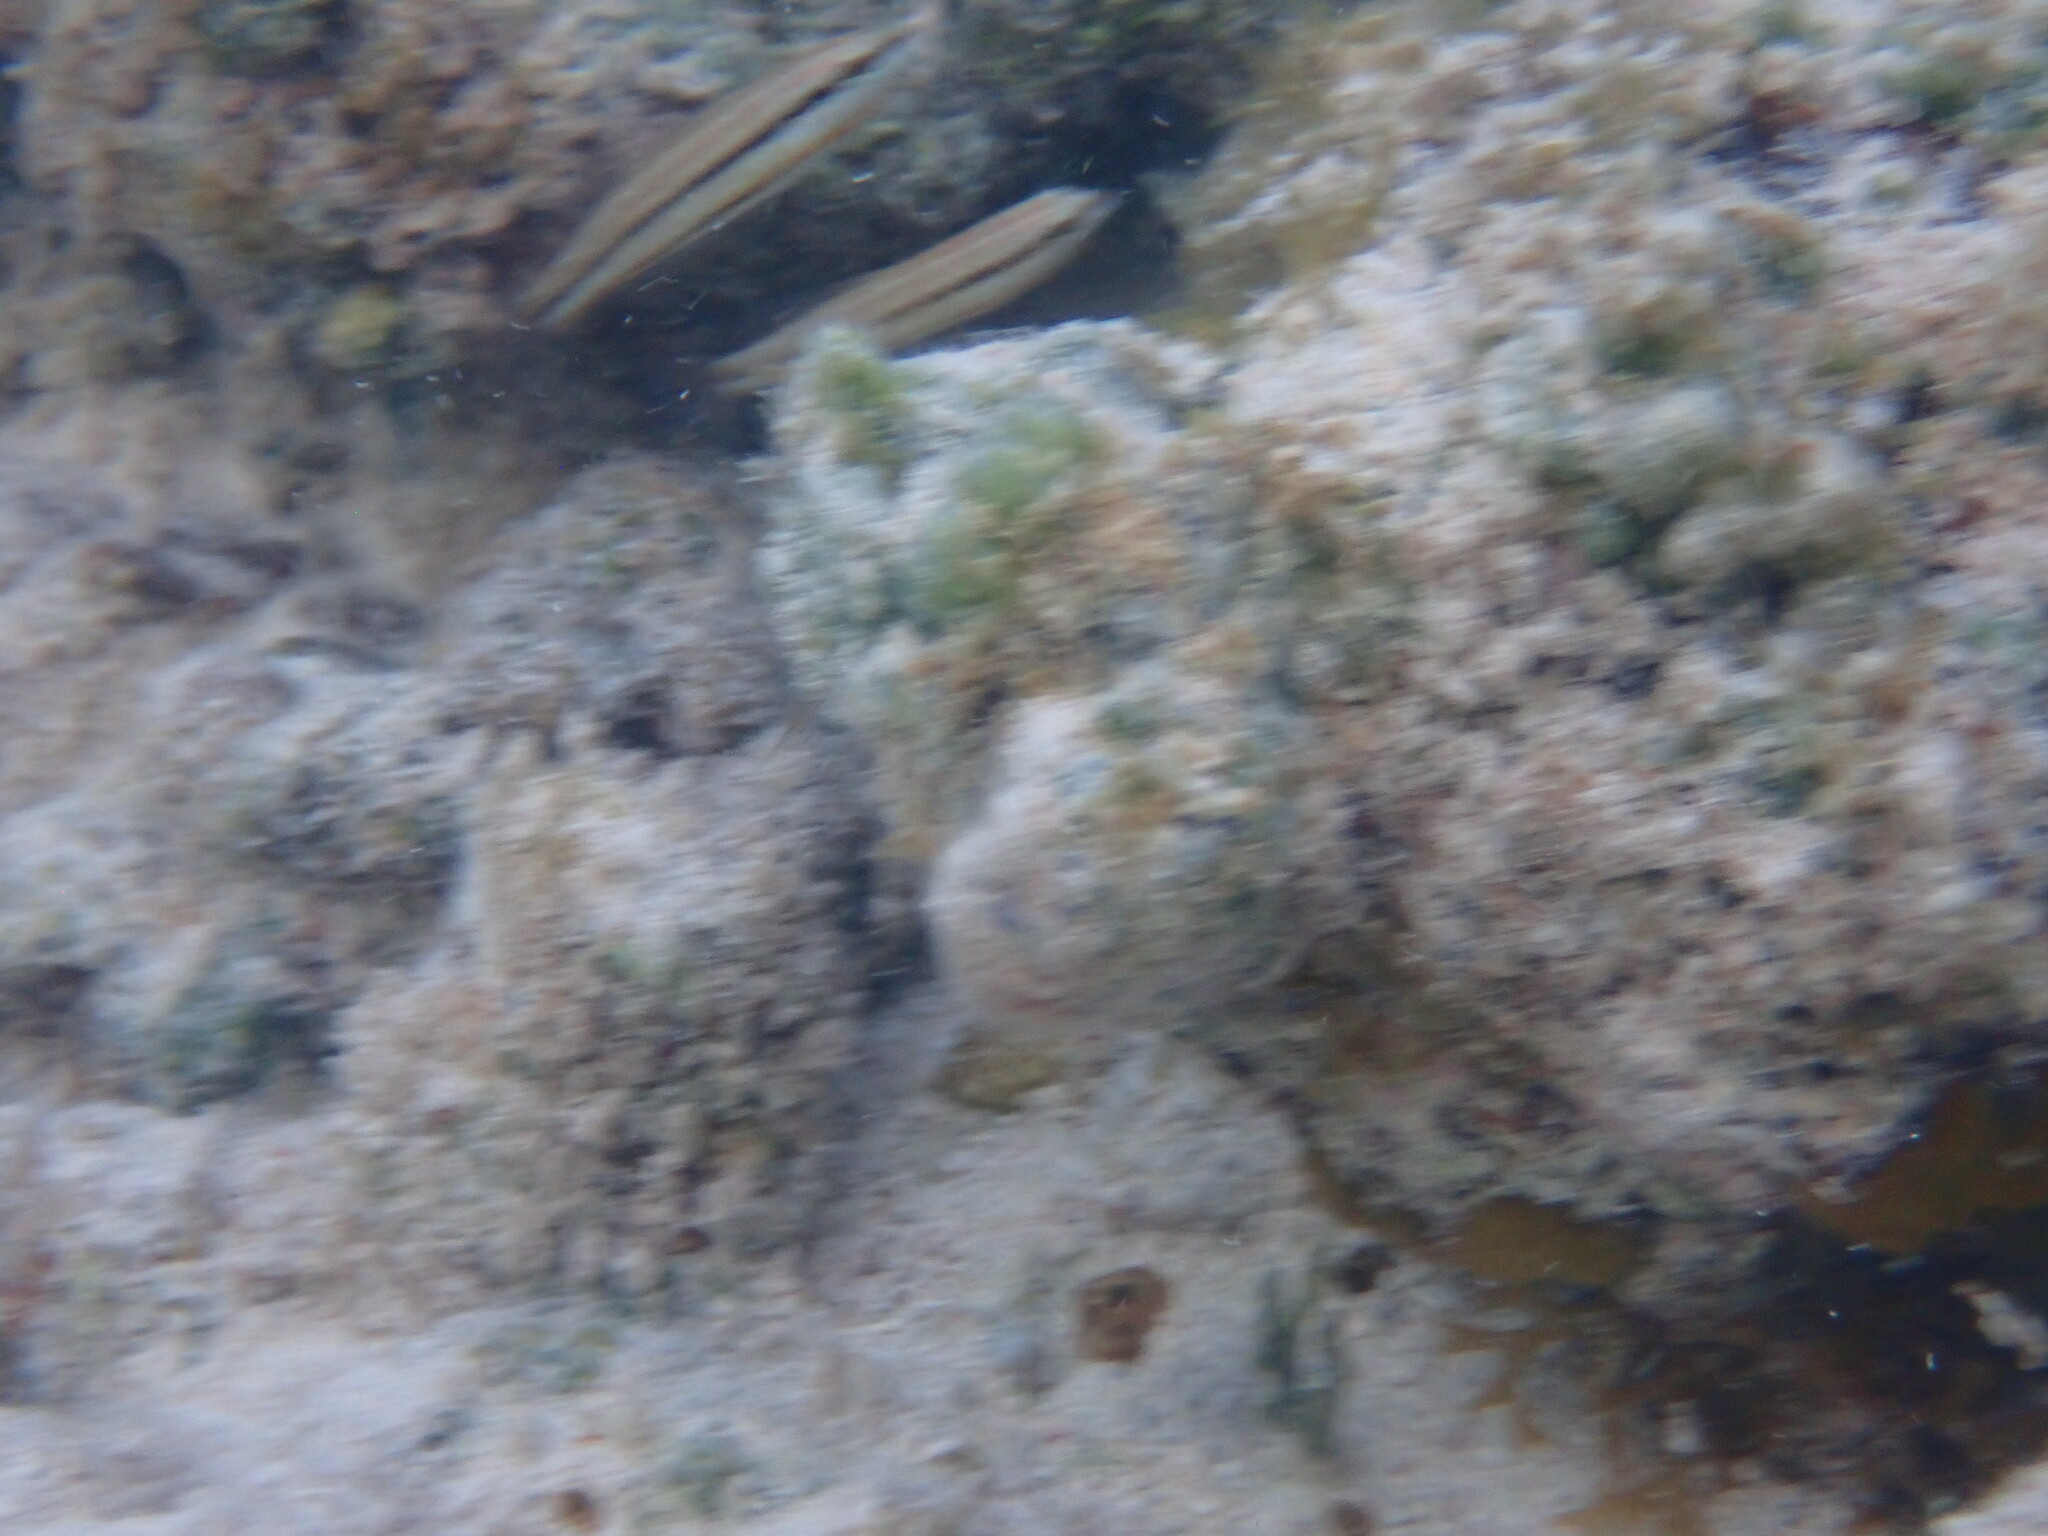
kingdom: Animalia
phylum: Chordata
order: Perciformes
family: Labridae
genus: Halichoeres
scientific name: Halichoeres bivittatus
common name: Slippery dick
